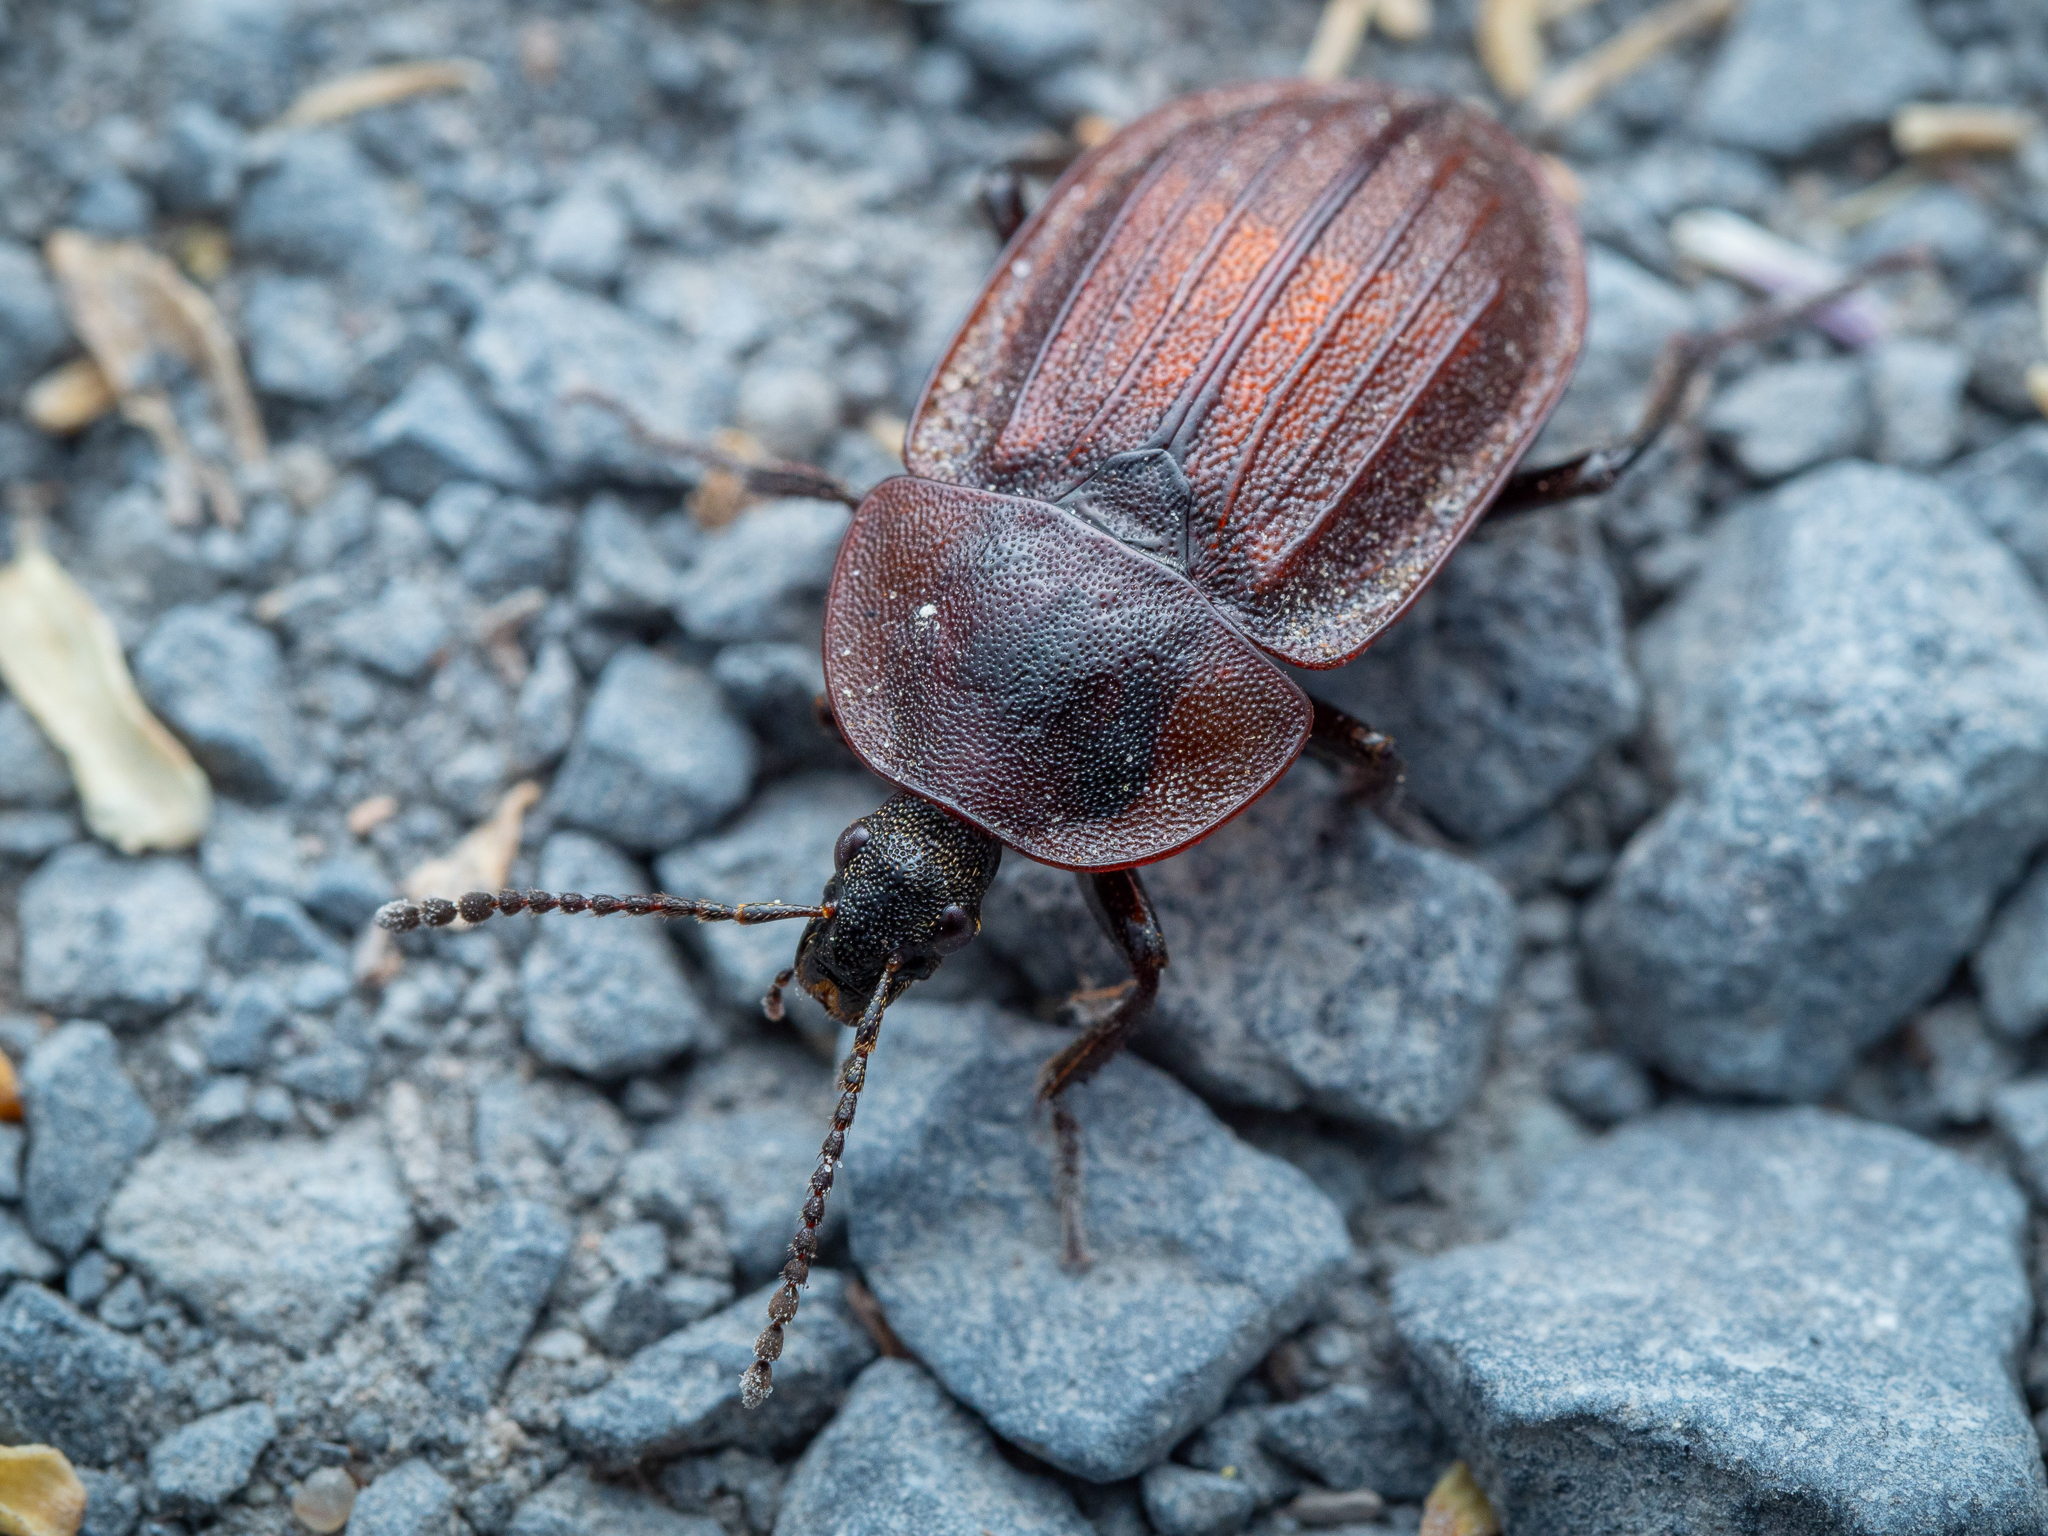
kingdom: Animalia
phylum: Arthropoda
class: Insecta
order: Coleoptera
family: Staphylinidae
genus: Silpha
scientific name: Silpha atrata
